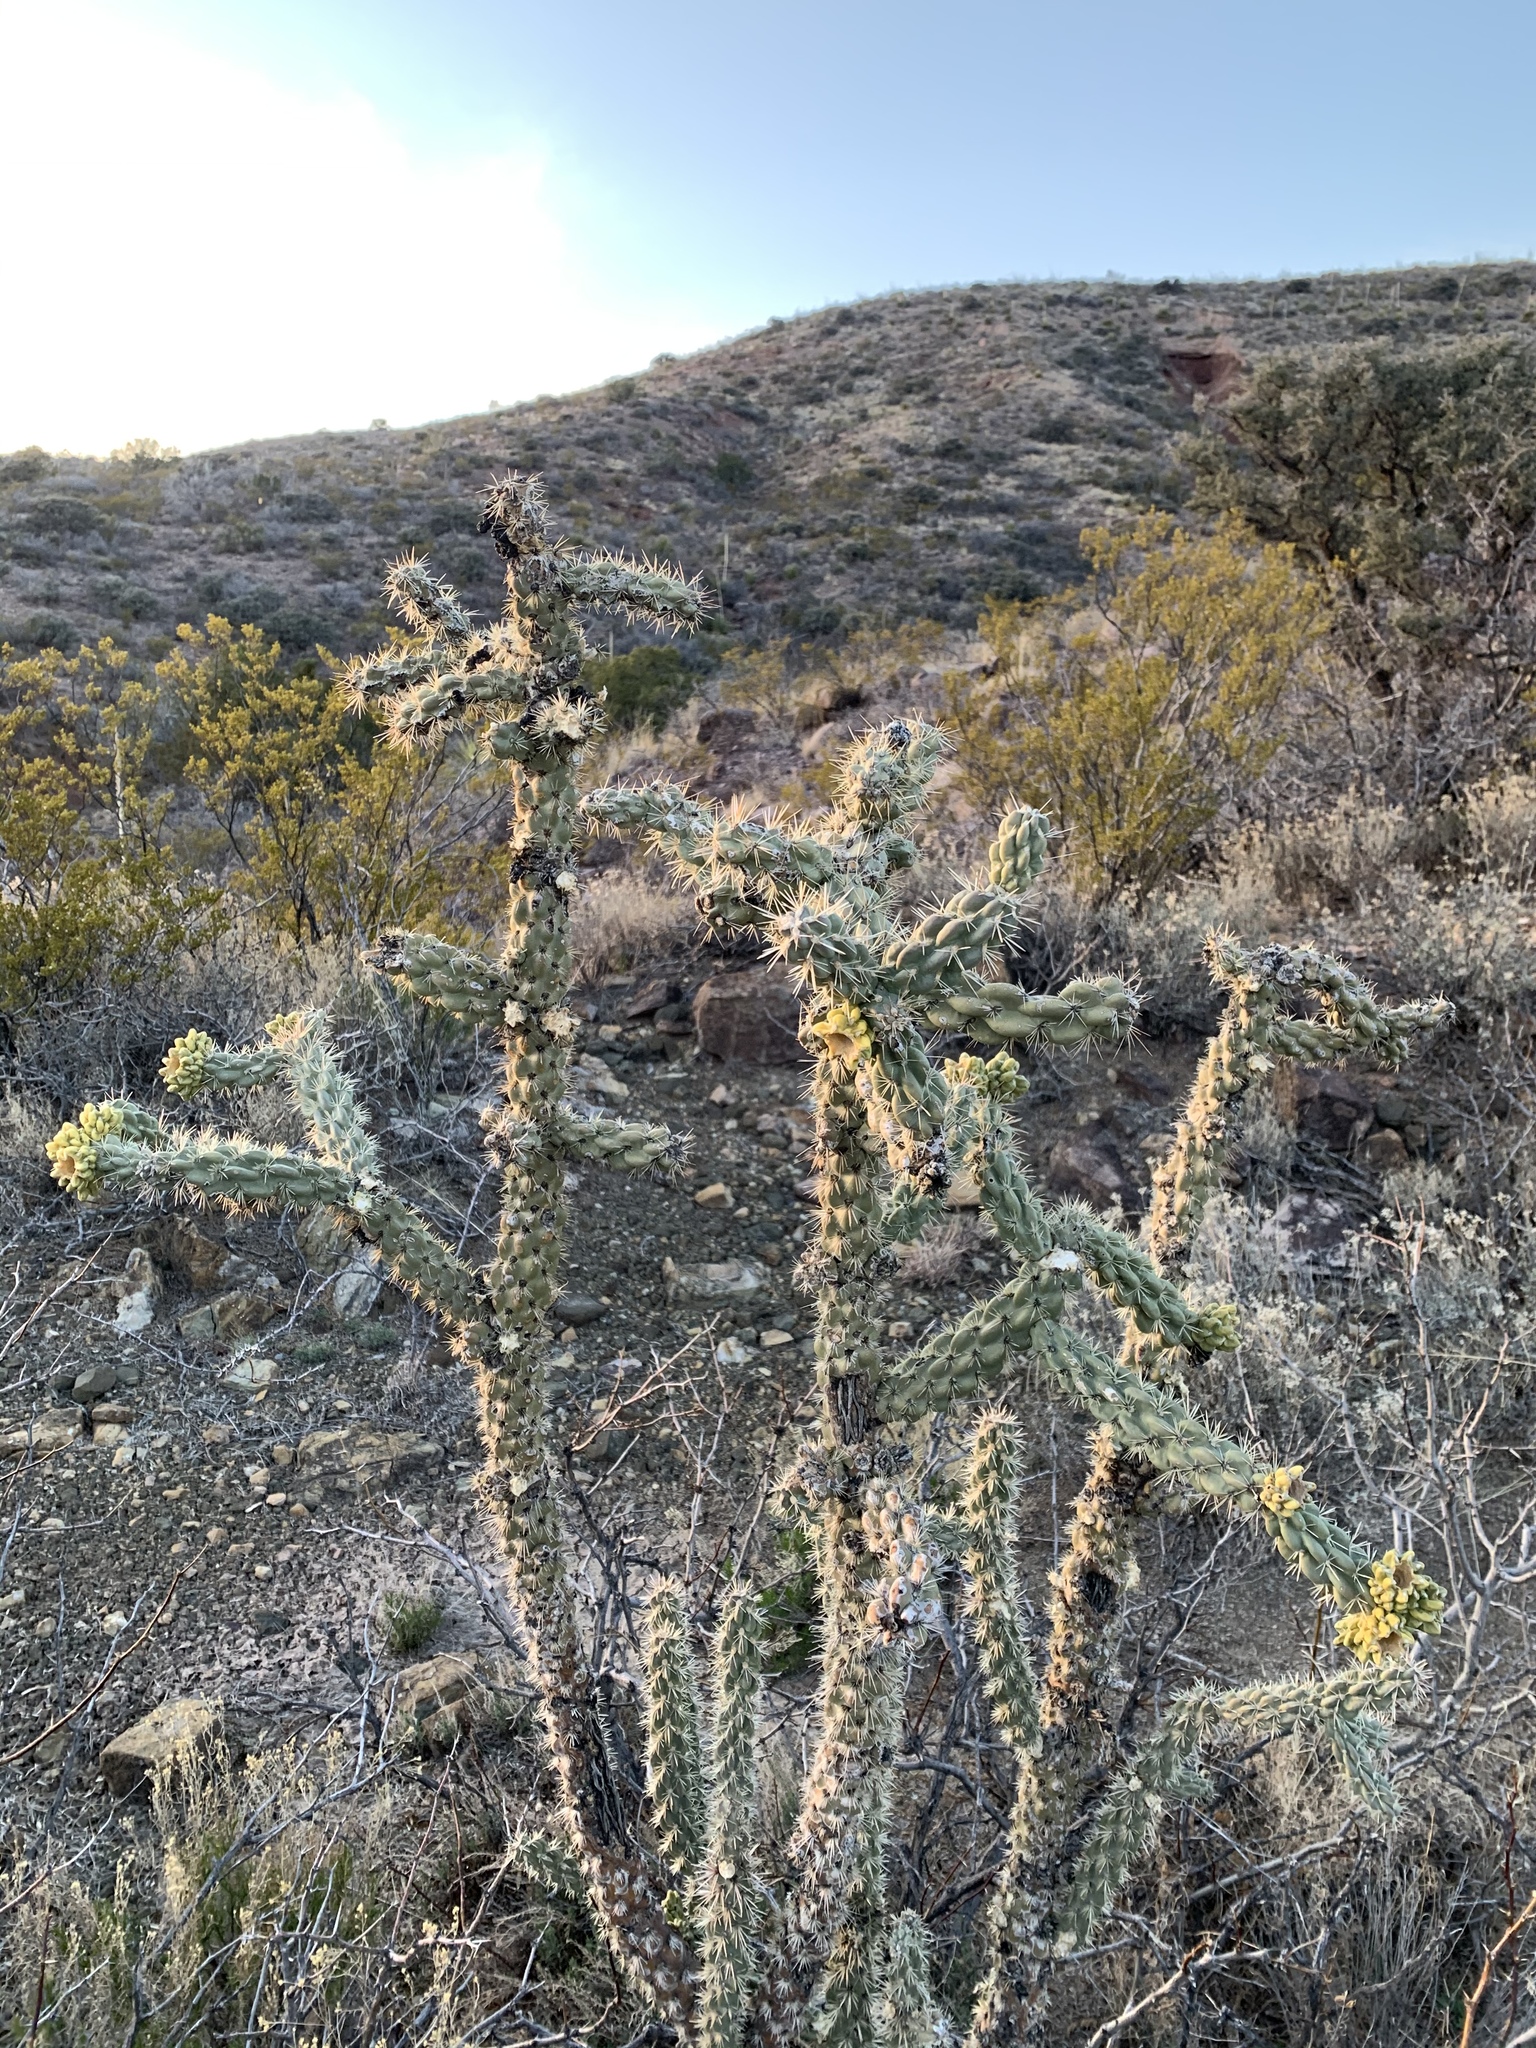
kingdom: Plantae
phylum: Tracheophyta
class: Magnoliopsida
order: Caryophyllales
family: Cactaceae
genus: Cylindropuntia
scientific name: Cylindropuntia imbricata
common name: Candelabrum cactus
